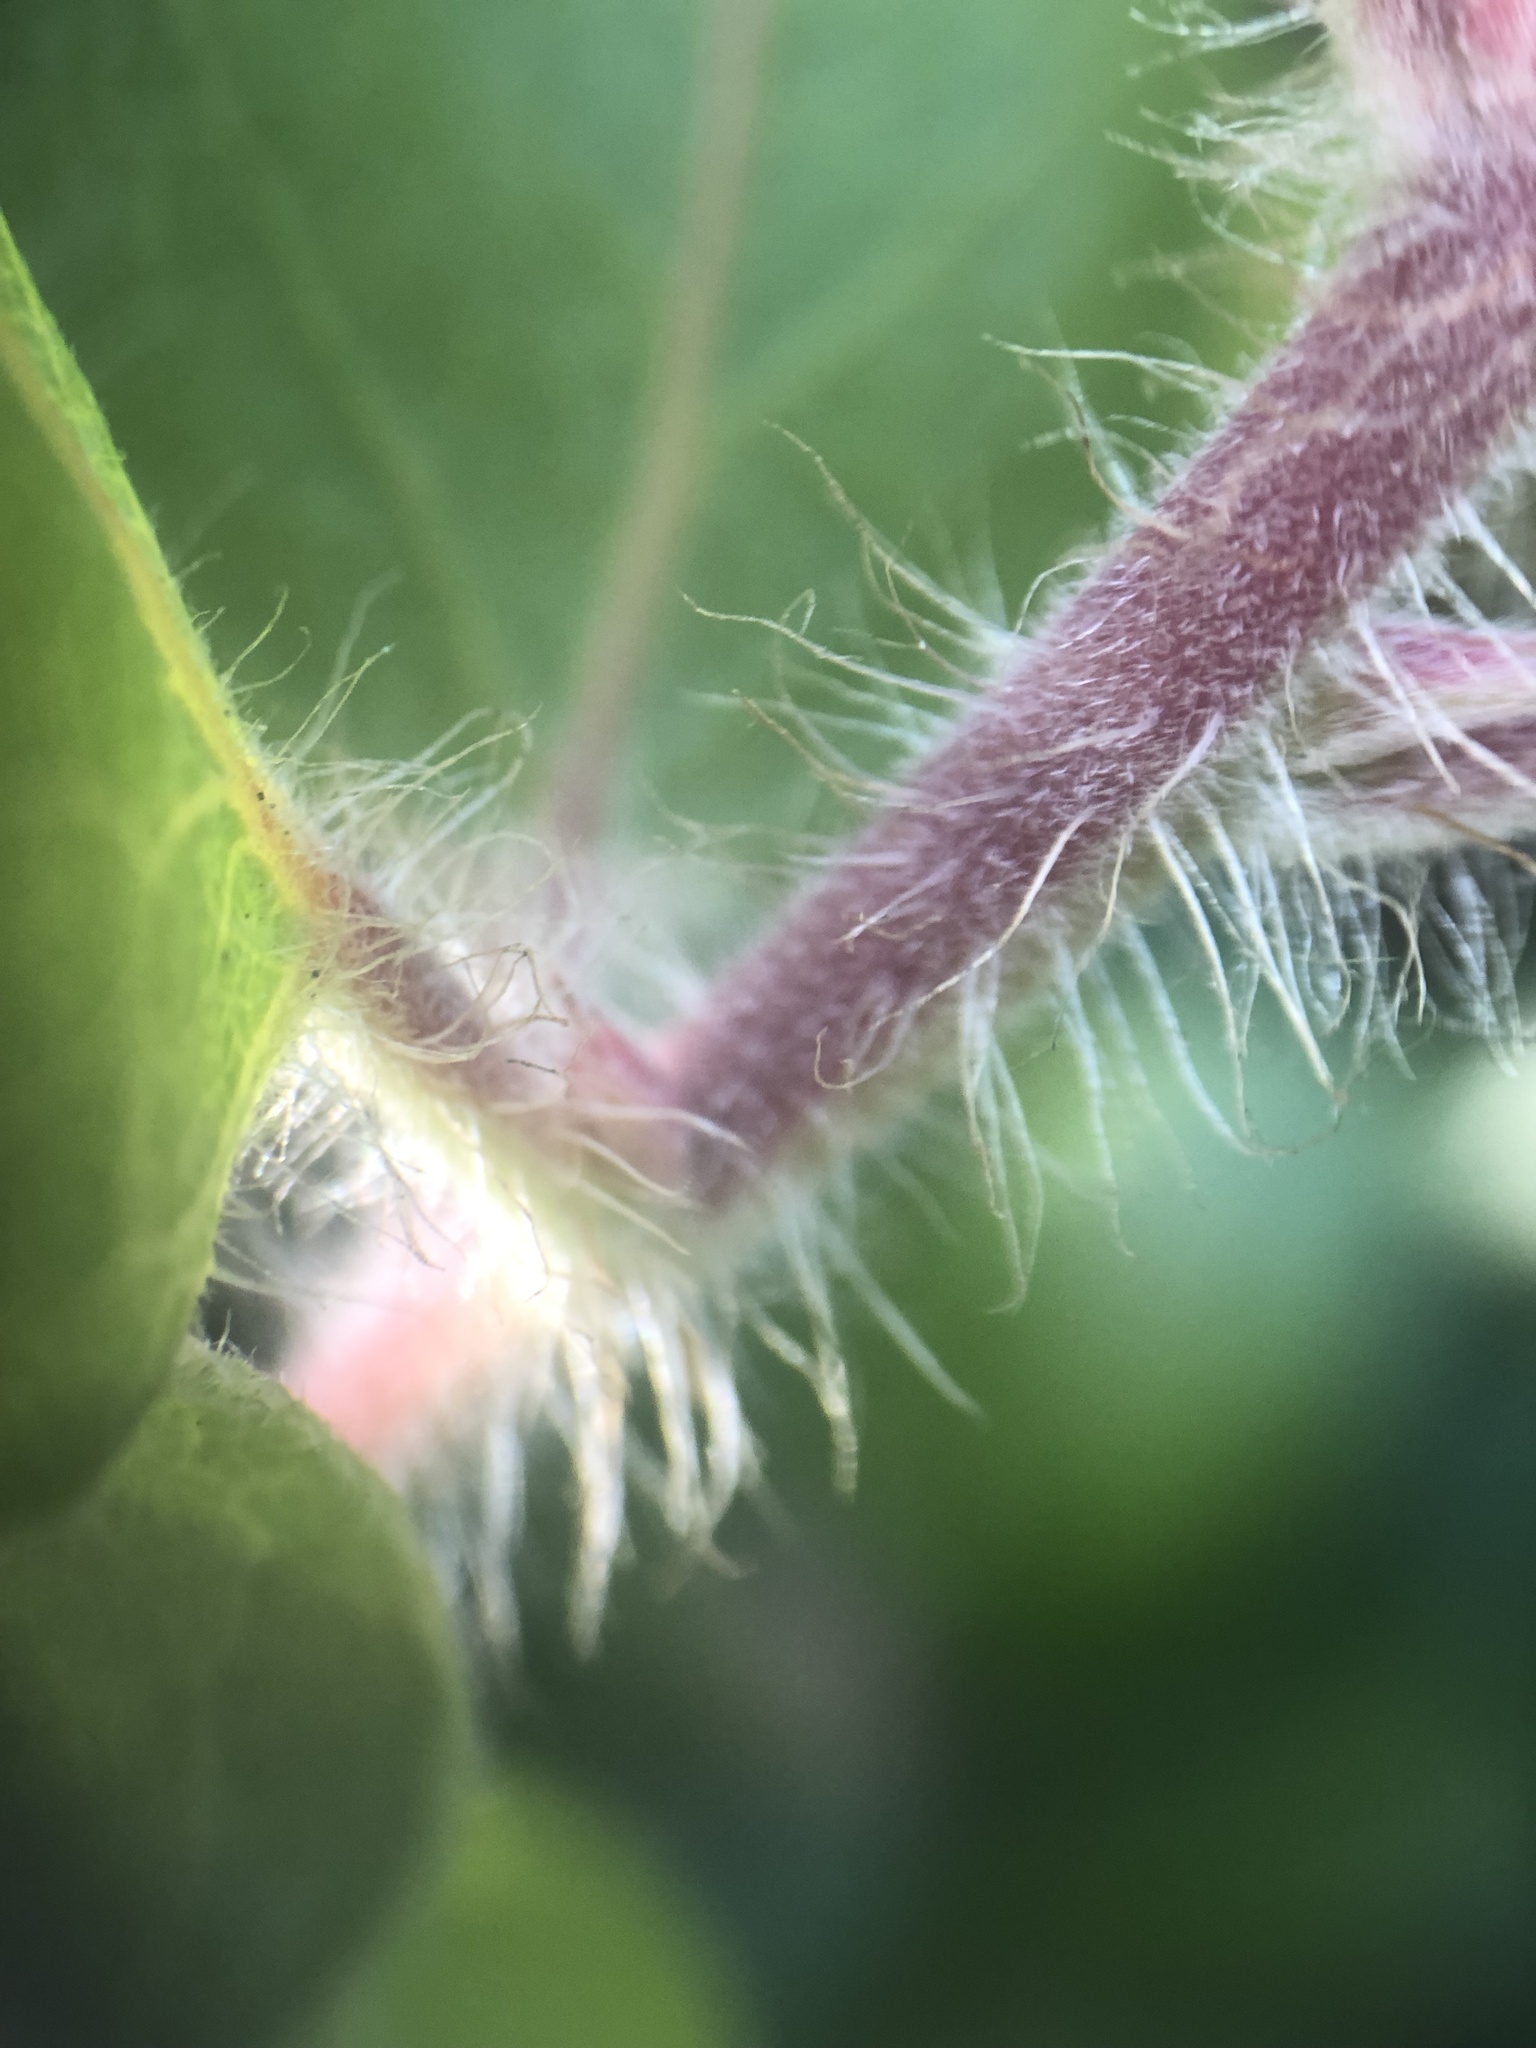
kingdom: Plantae
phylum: Tracheophyta
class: Magnoliopsida
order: Ericales
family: Ericaceae
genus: Arctostaphylos
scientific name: Arctostaphylos tomentosa
